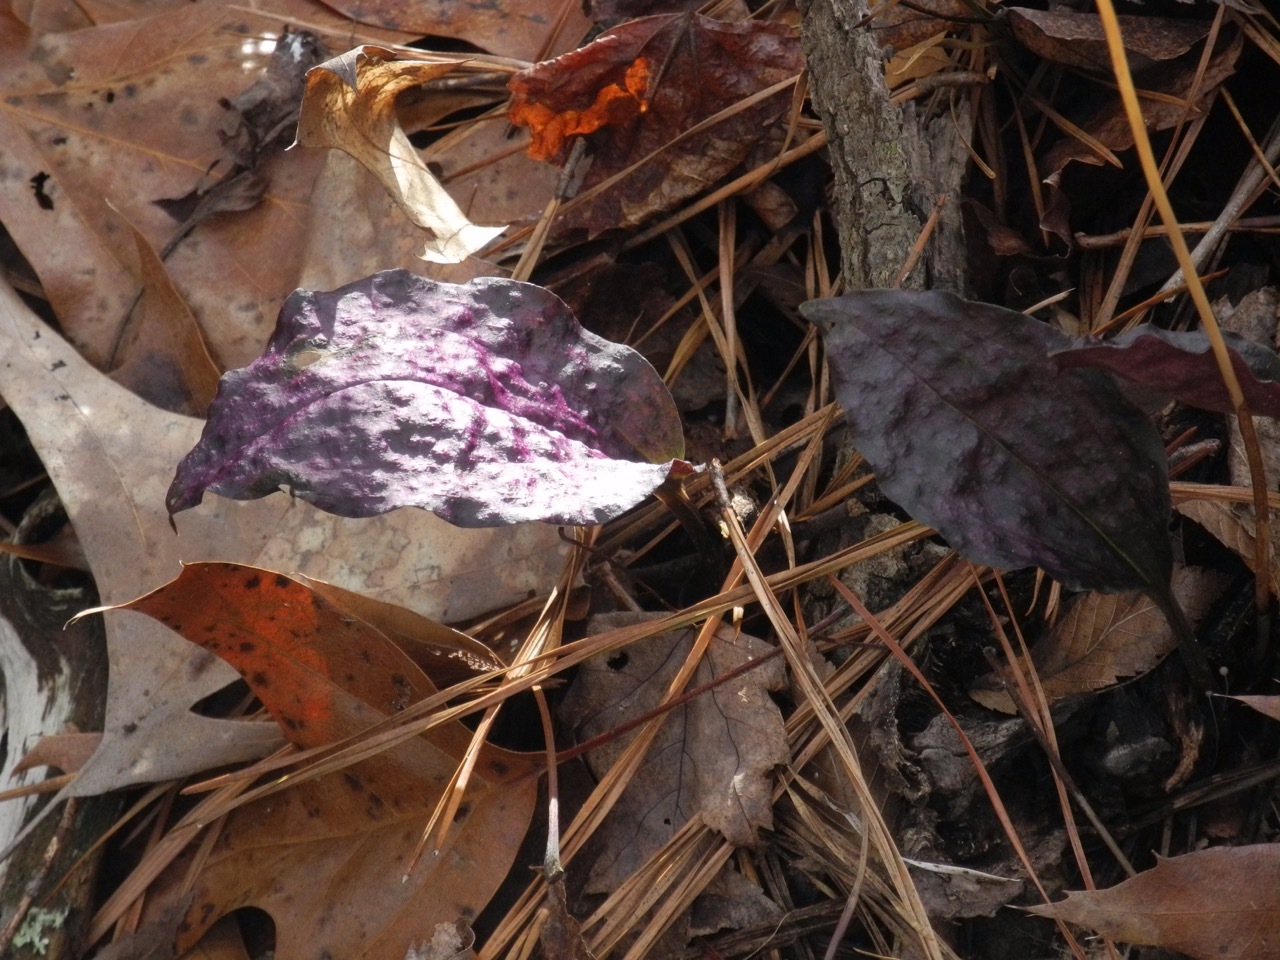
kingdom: Plantae
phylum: Tracheophyta
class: Liliopsida
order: Asparagales
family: Orchidaceae
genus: Tipularia
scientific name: Tipularia discolor
